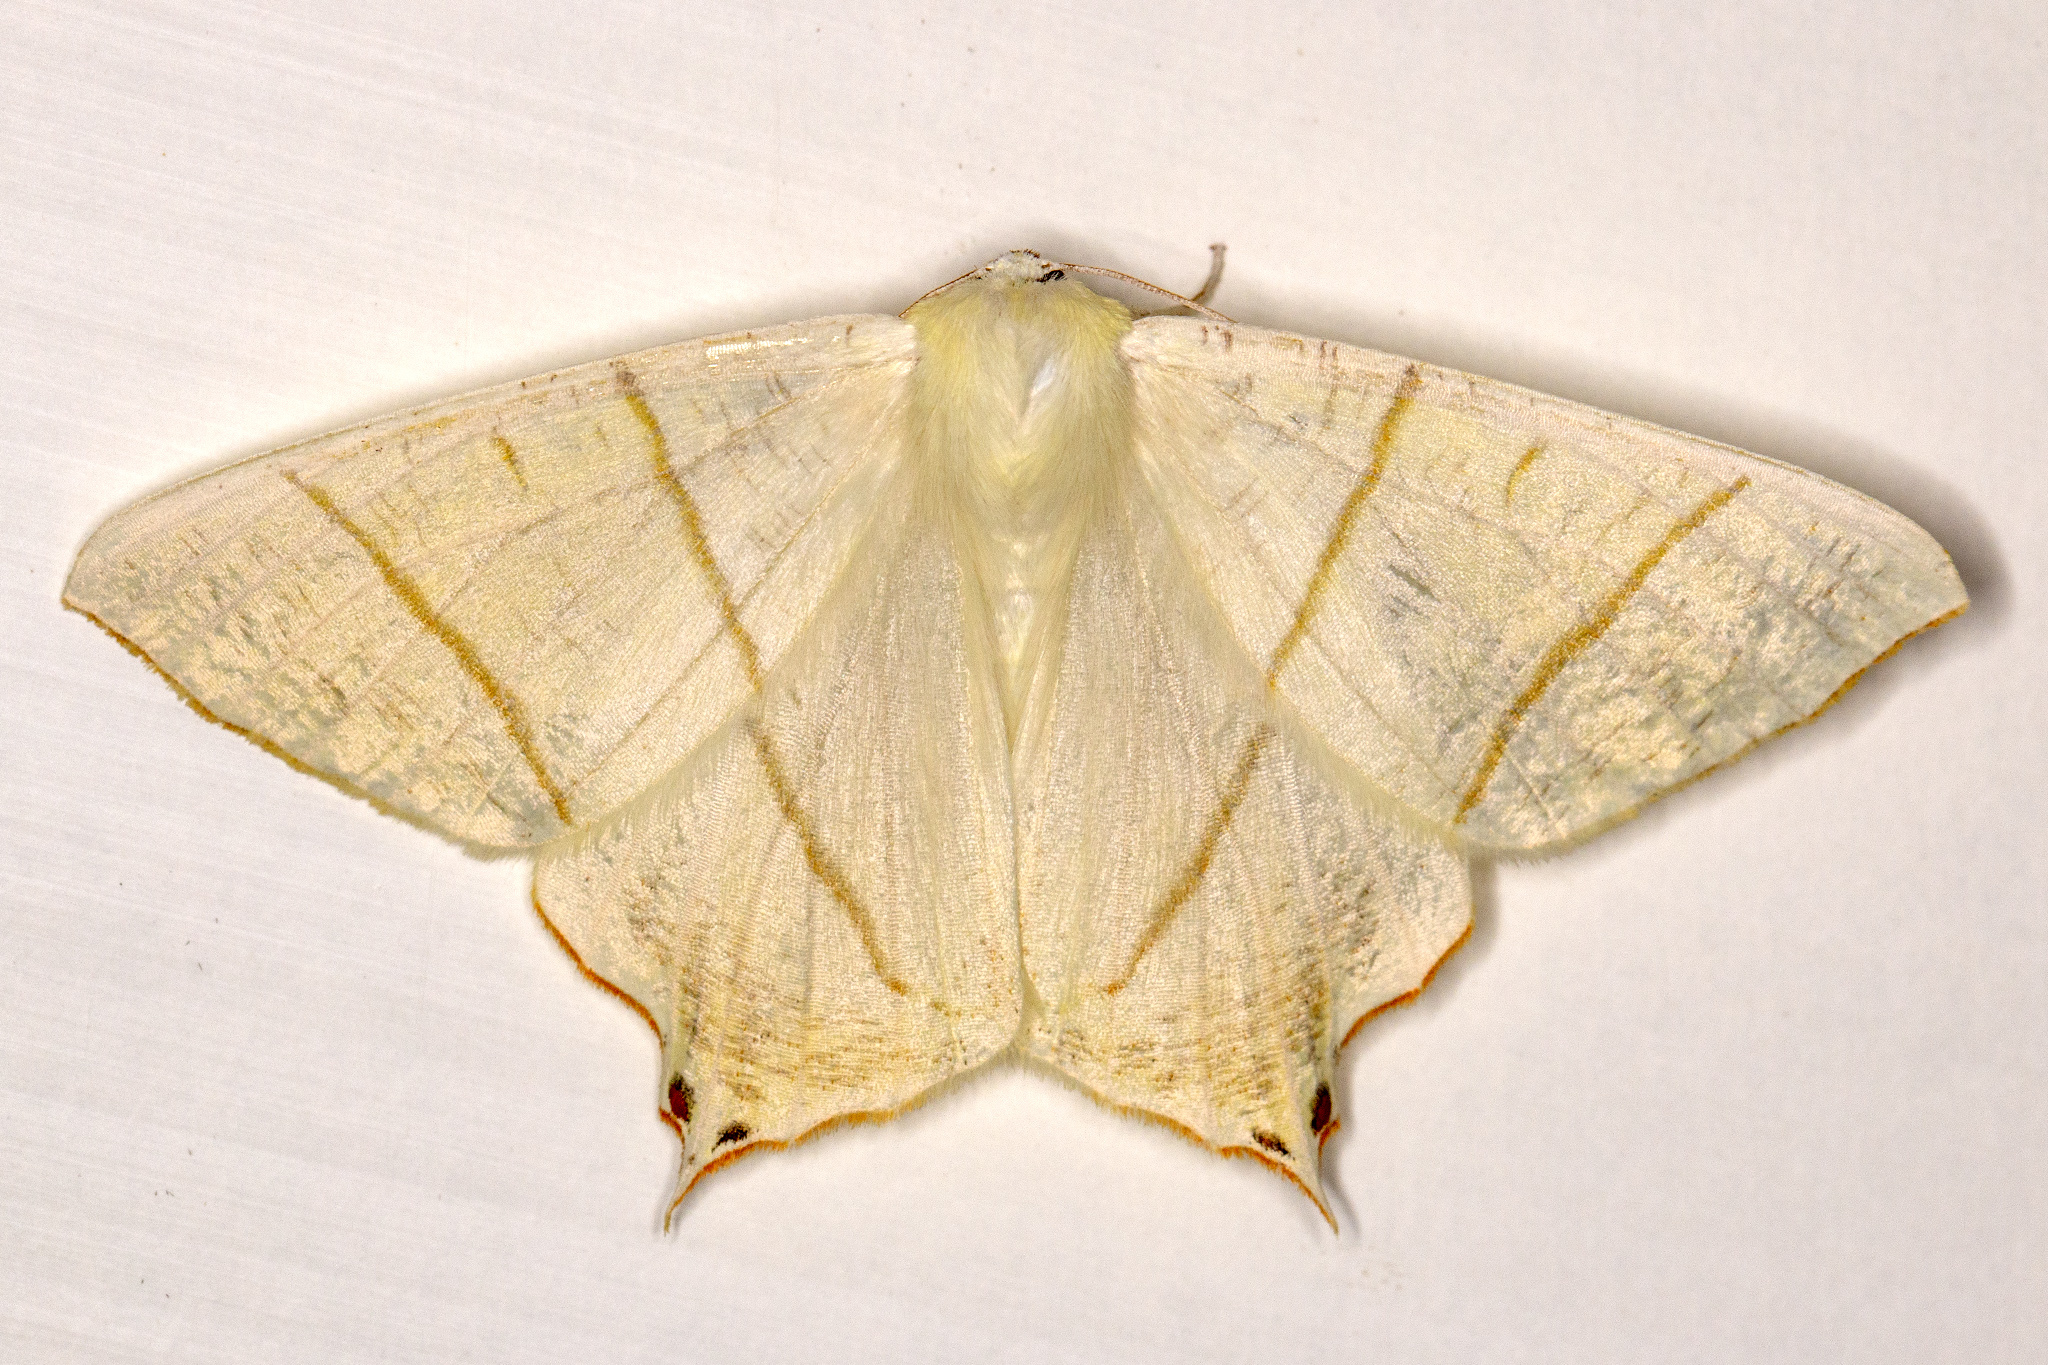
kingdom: Animalia
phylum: Arthropoda
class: Insecta
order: Lepidoptera
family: Geometridae
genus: Ourapteryx
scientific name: Ourapteryx sambucaria
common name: Swallow-tailed moth
